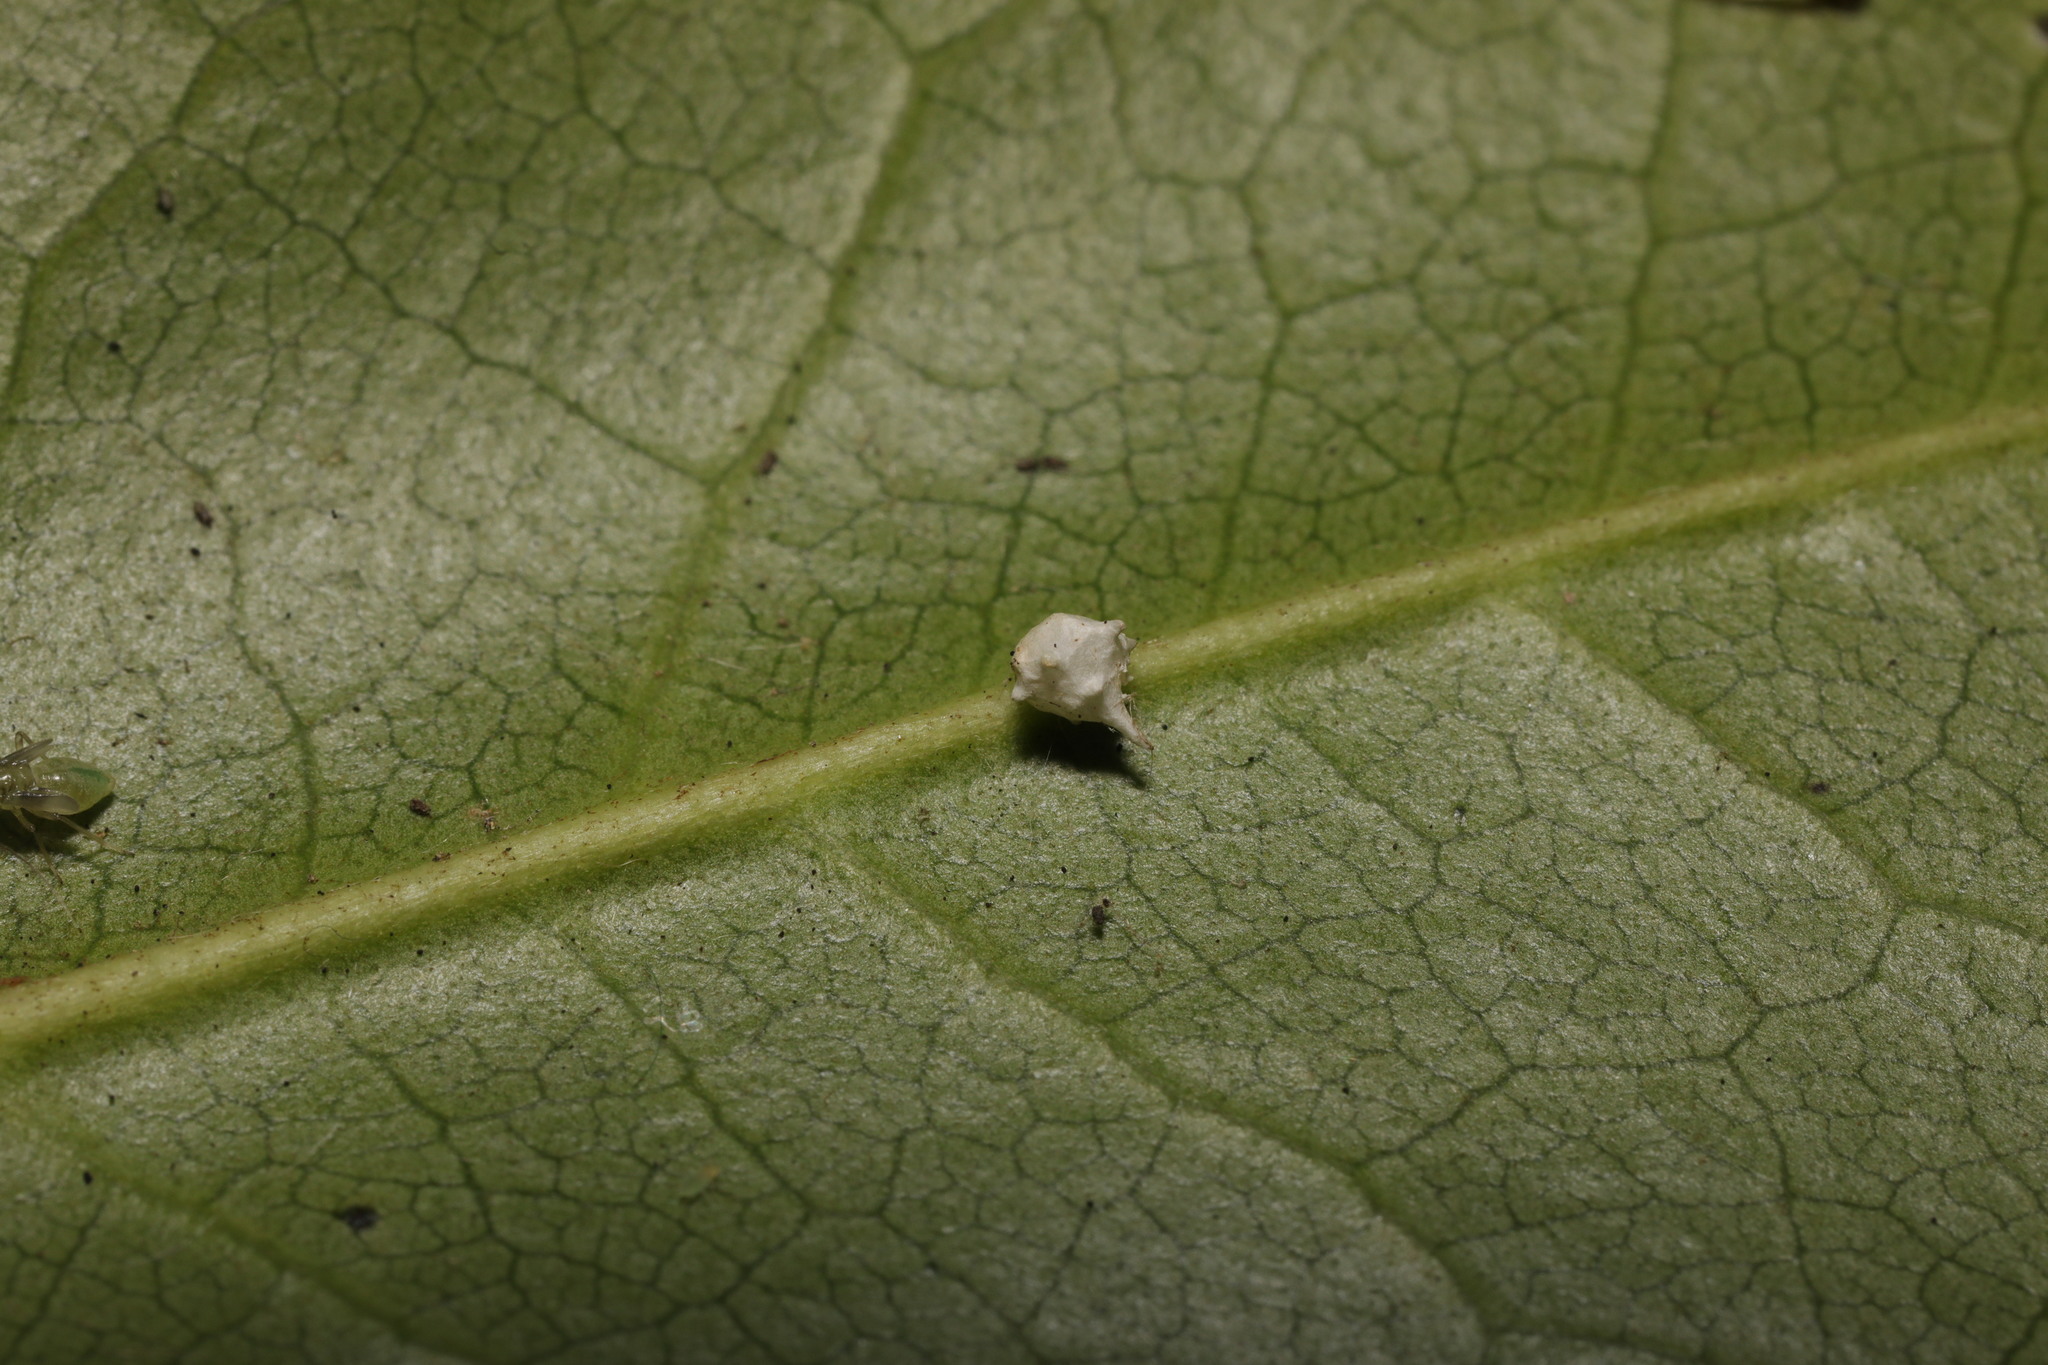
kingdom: Animalia
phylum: Arthropoda
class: Arachnida
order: Araneae
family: Theridiidae
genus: Paidiscura
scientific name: Paidiscura pallens
